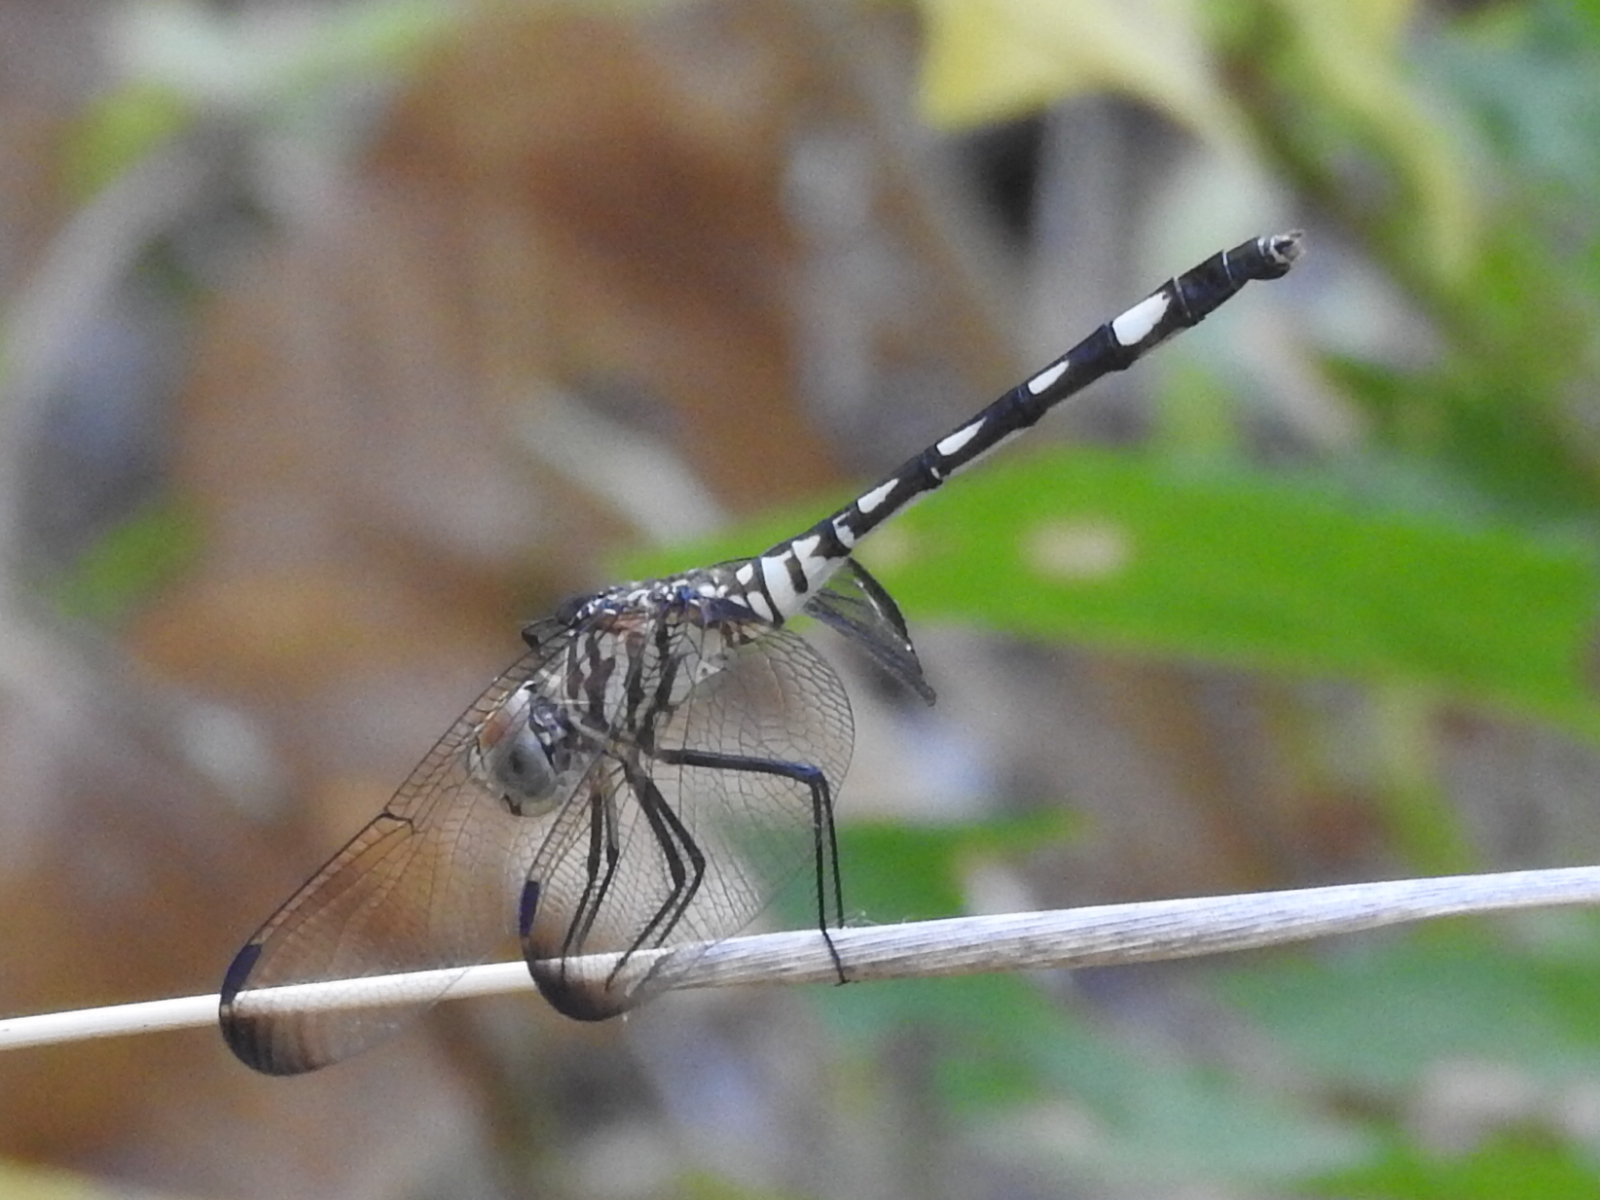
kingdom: Animalia
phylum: Arthropoda
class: Insecta
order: Odonata
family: Libellulidae
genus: Dythemis
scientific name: Dythemis velox
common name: Swift setwing
